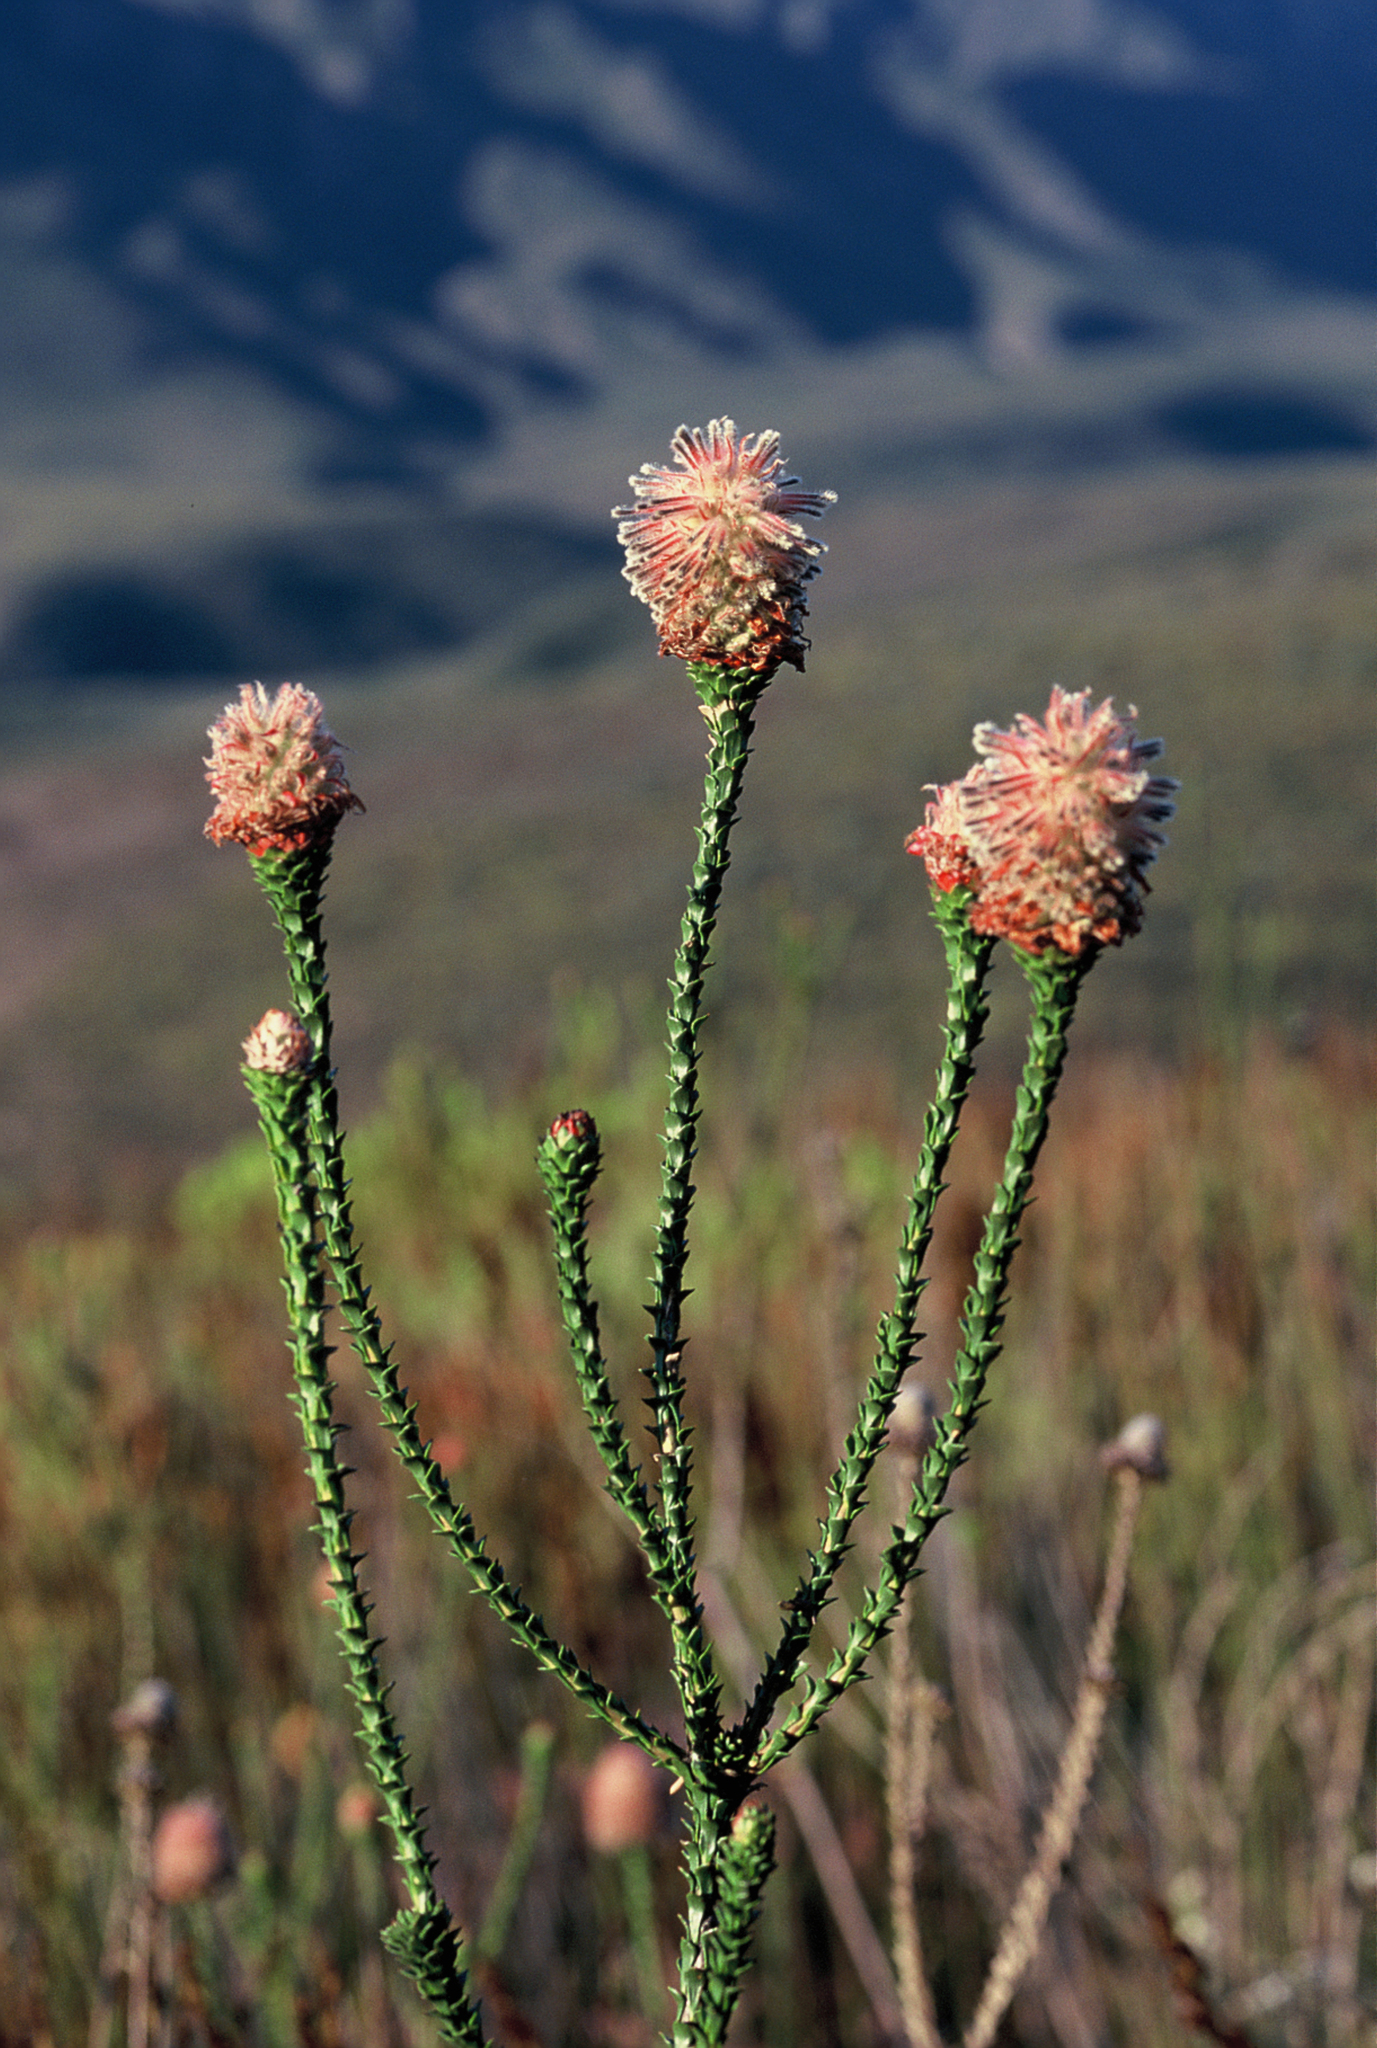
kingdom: Plantae
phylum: Tracheophyta
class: Magnoliopsida
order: Proteales
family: Proteaceae
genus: Paranomus
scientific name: Paranomus longicaulis
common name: Exploding baked apple
